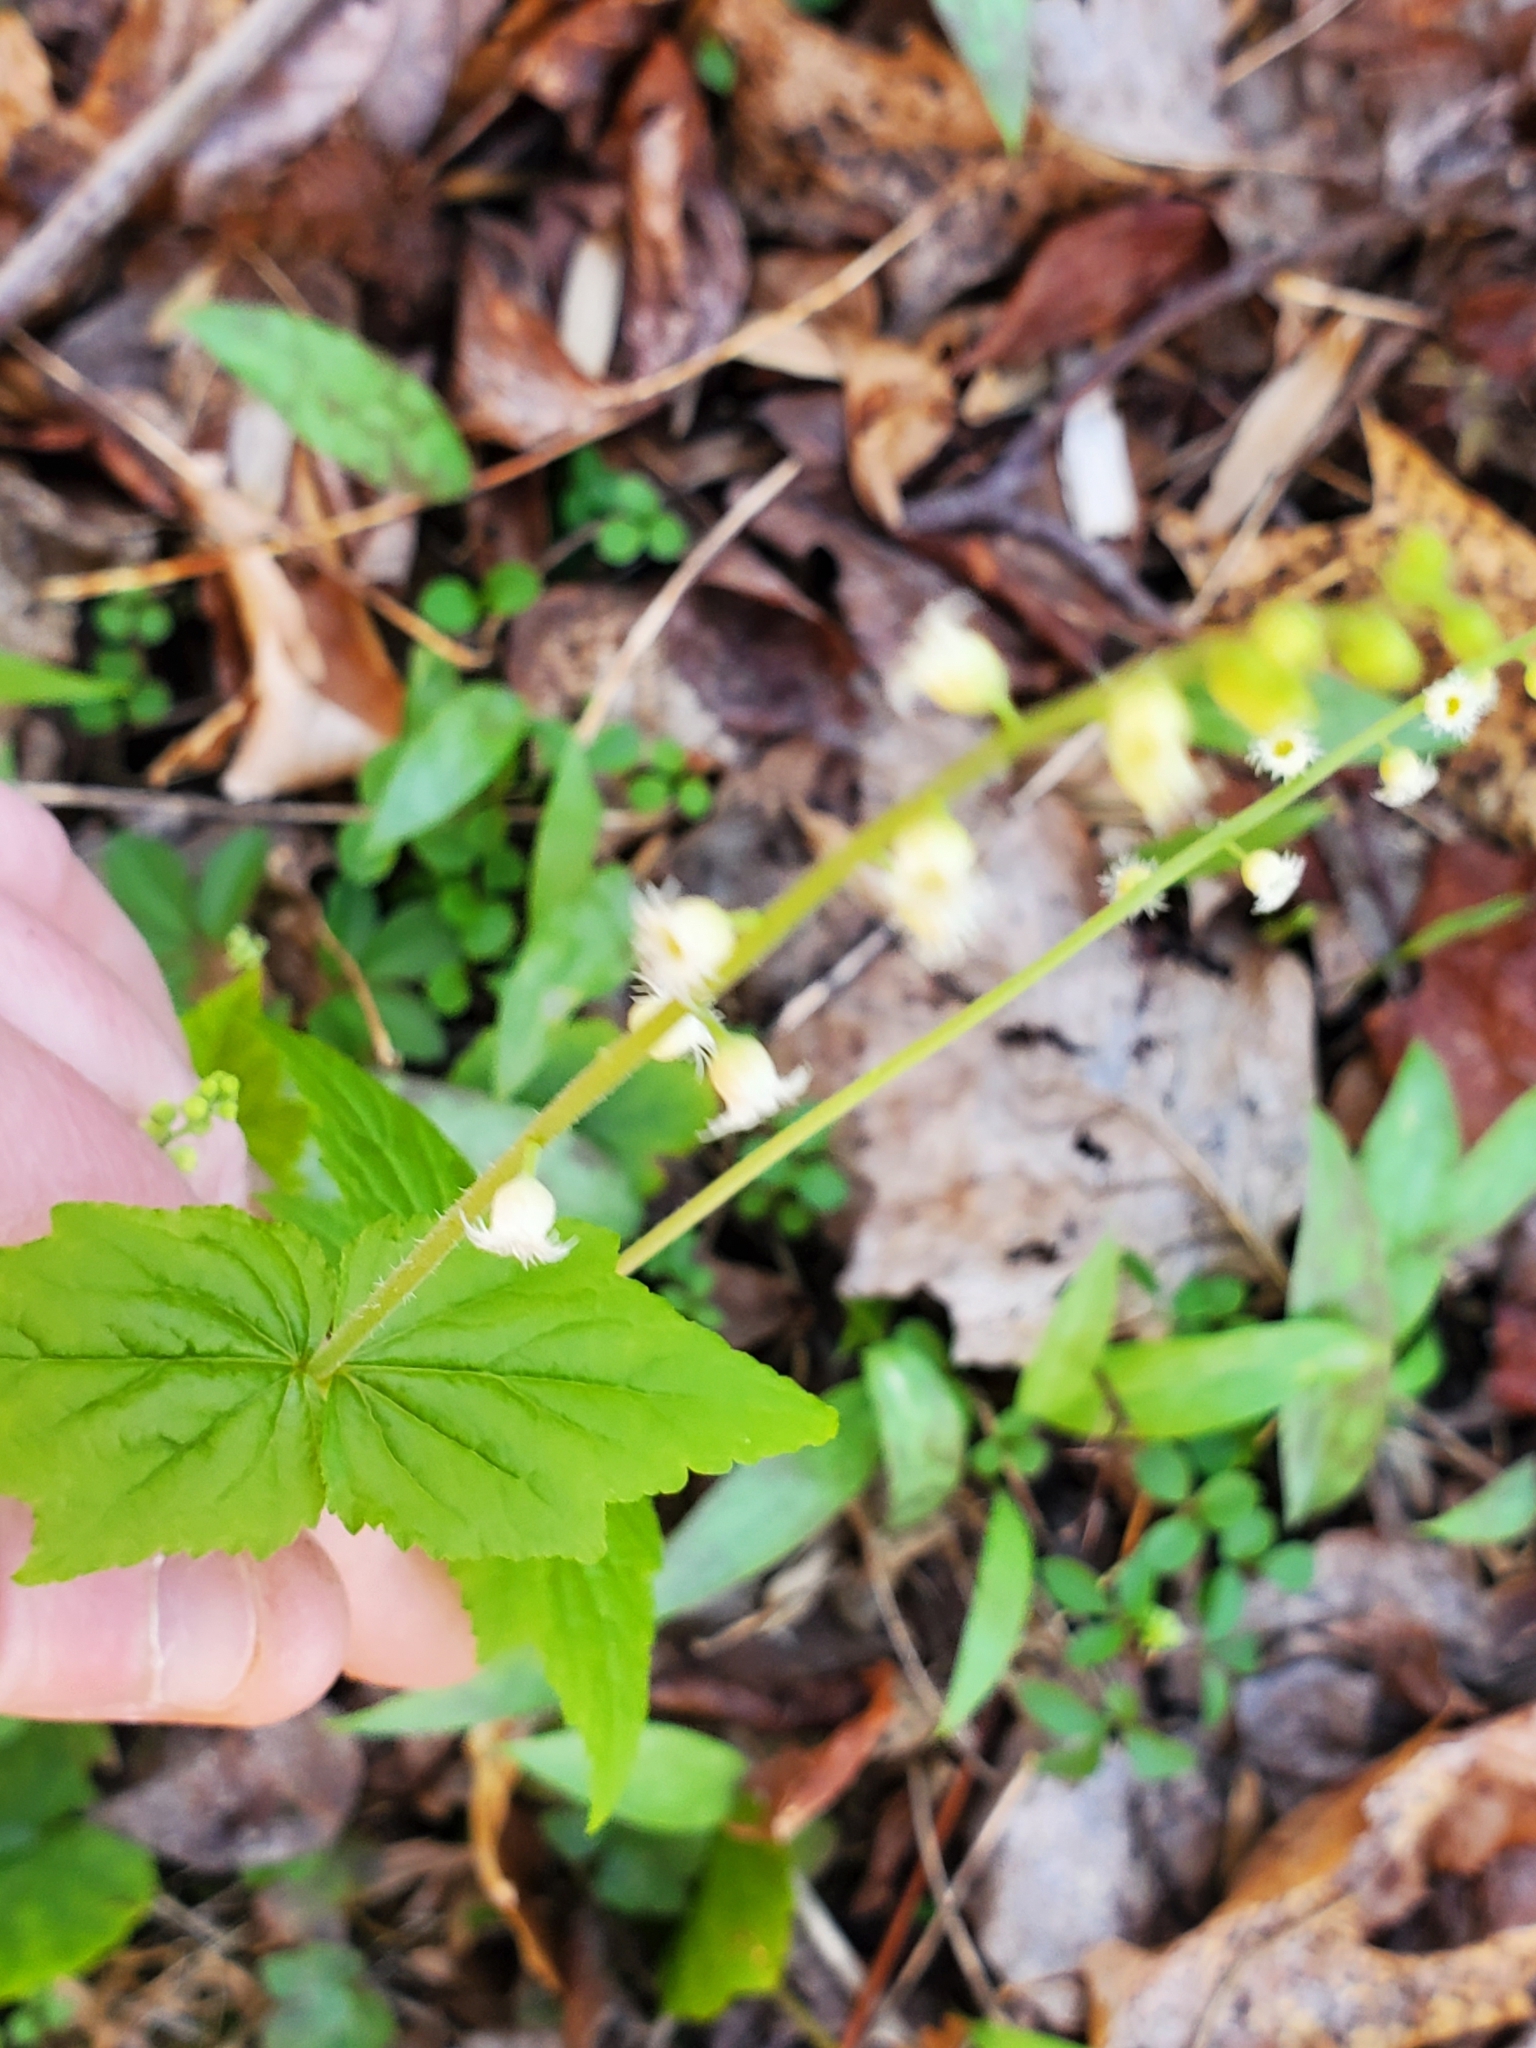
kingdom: Plantae
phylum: Tracheophyta
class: Magnoliopsida
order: Saxifragales
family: Saxifragaceae
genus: Mitella
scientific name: Mitella diphylla
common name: Coolwort
